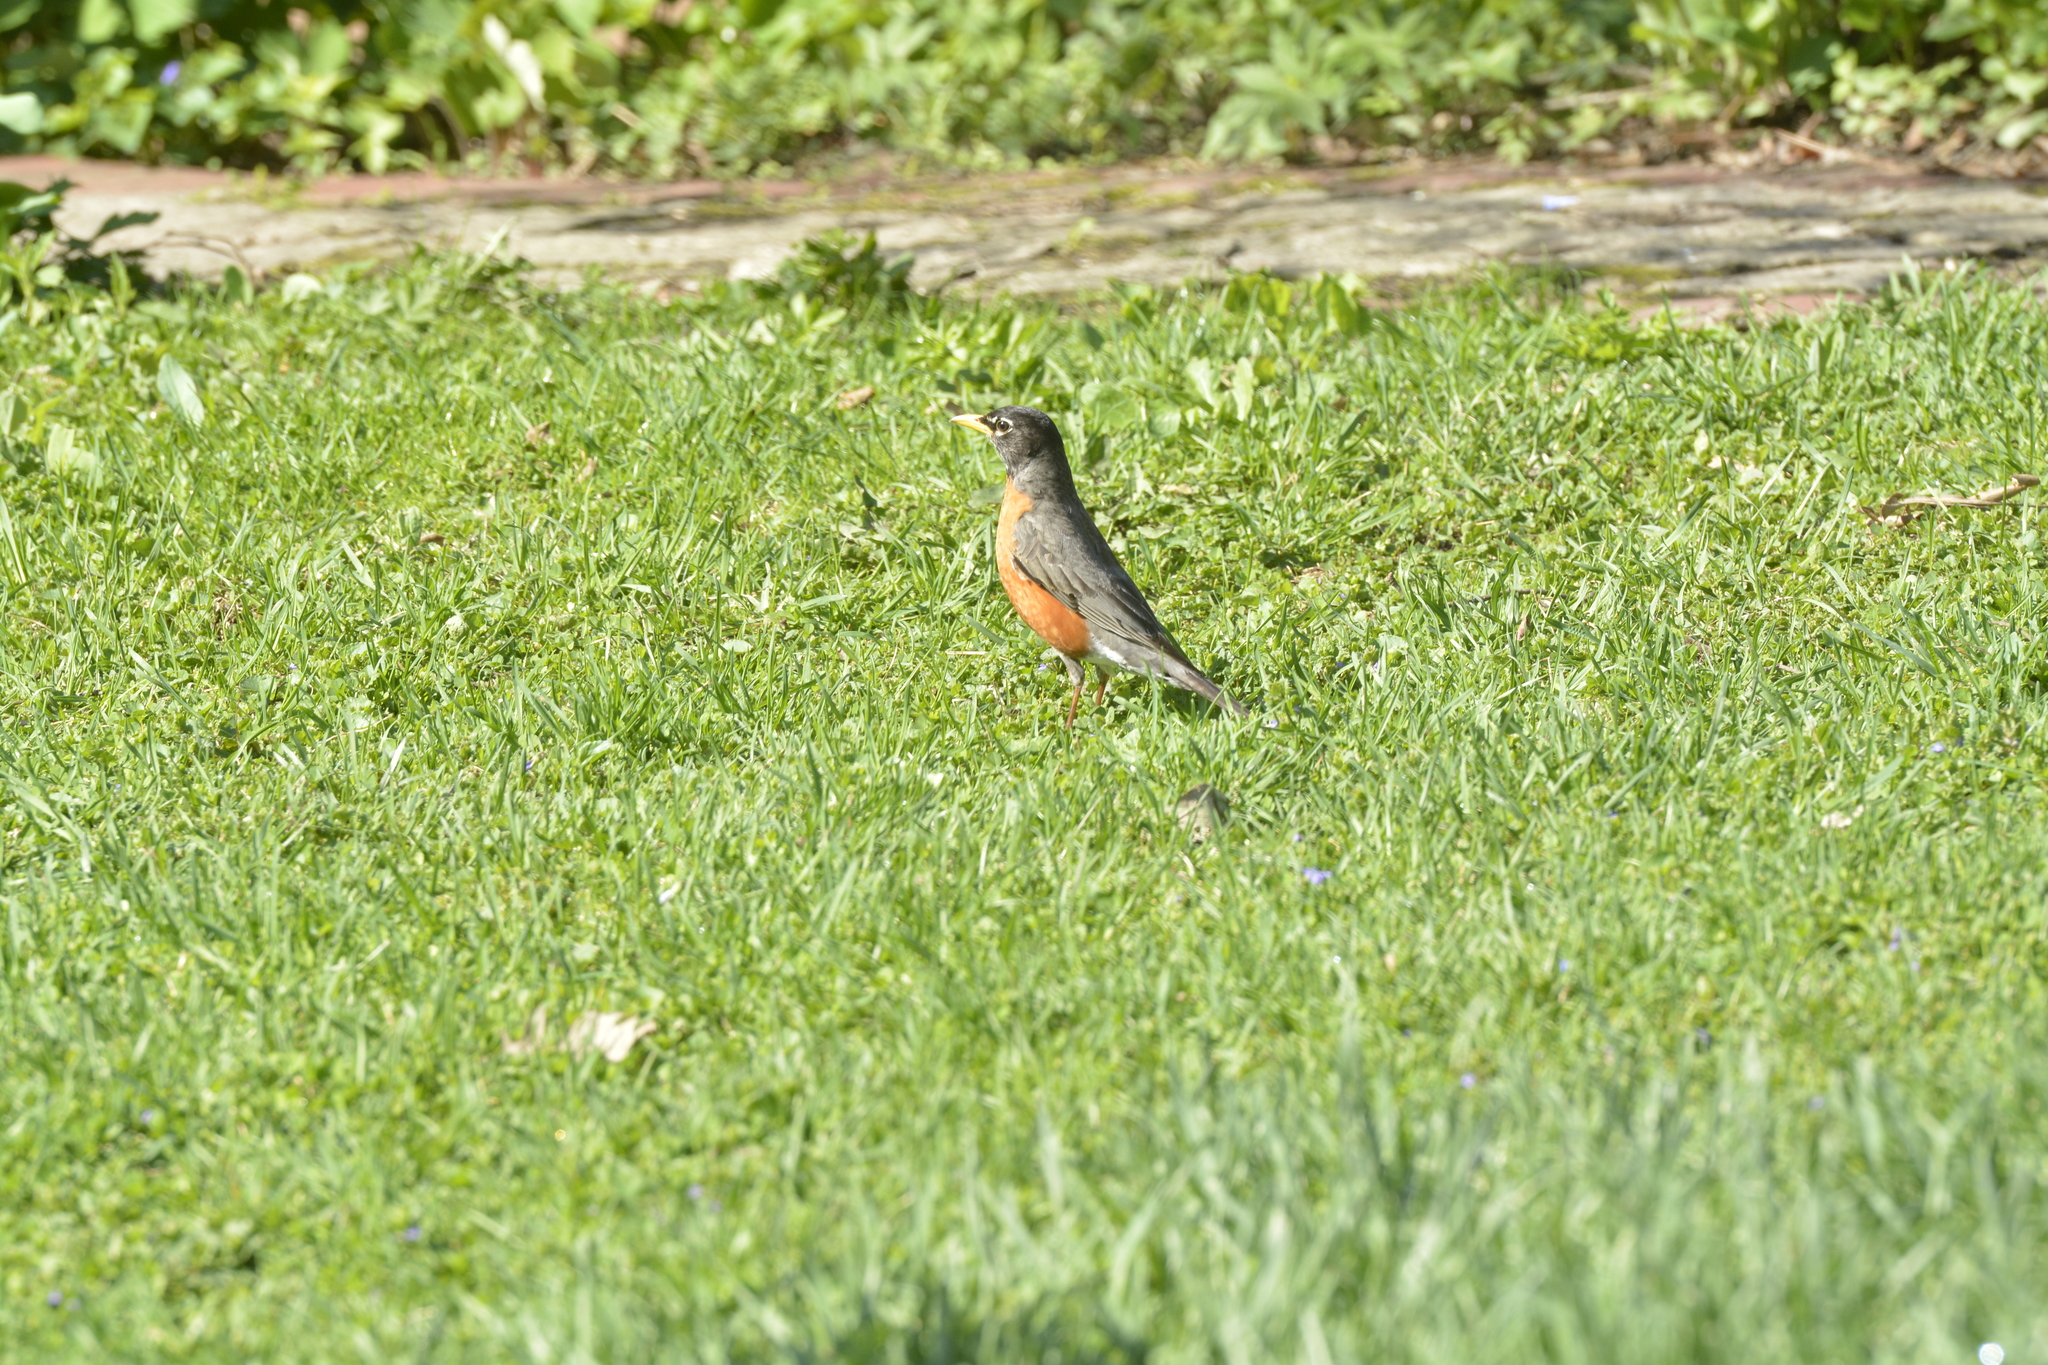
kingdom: Animalia
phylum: Chordata
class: Aves
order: Passeriformes
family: Turdidae
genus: Turdus
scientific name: Turdus migratorius
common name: American robin
